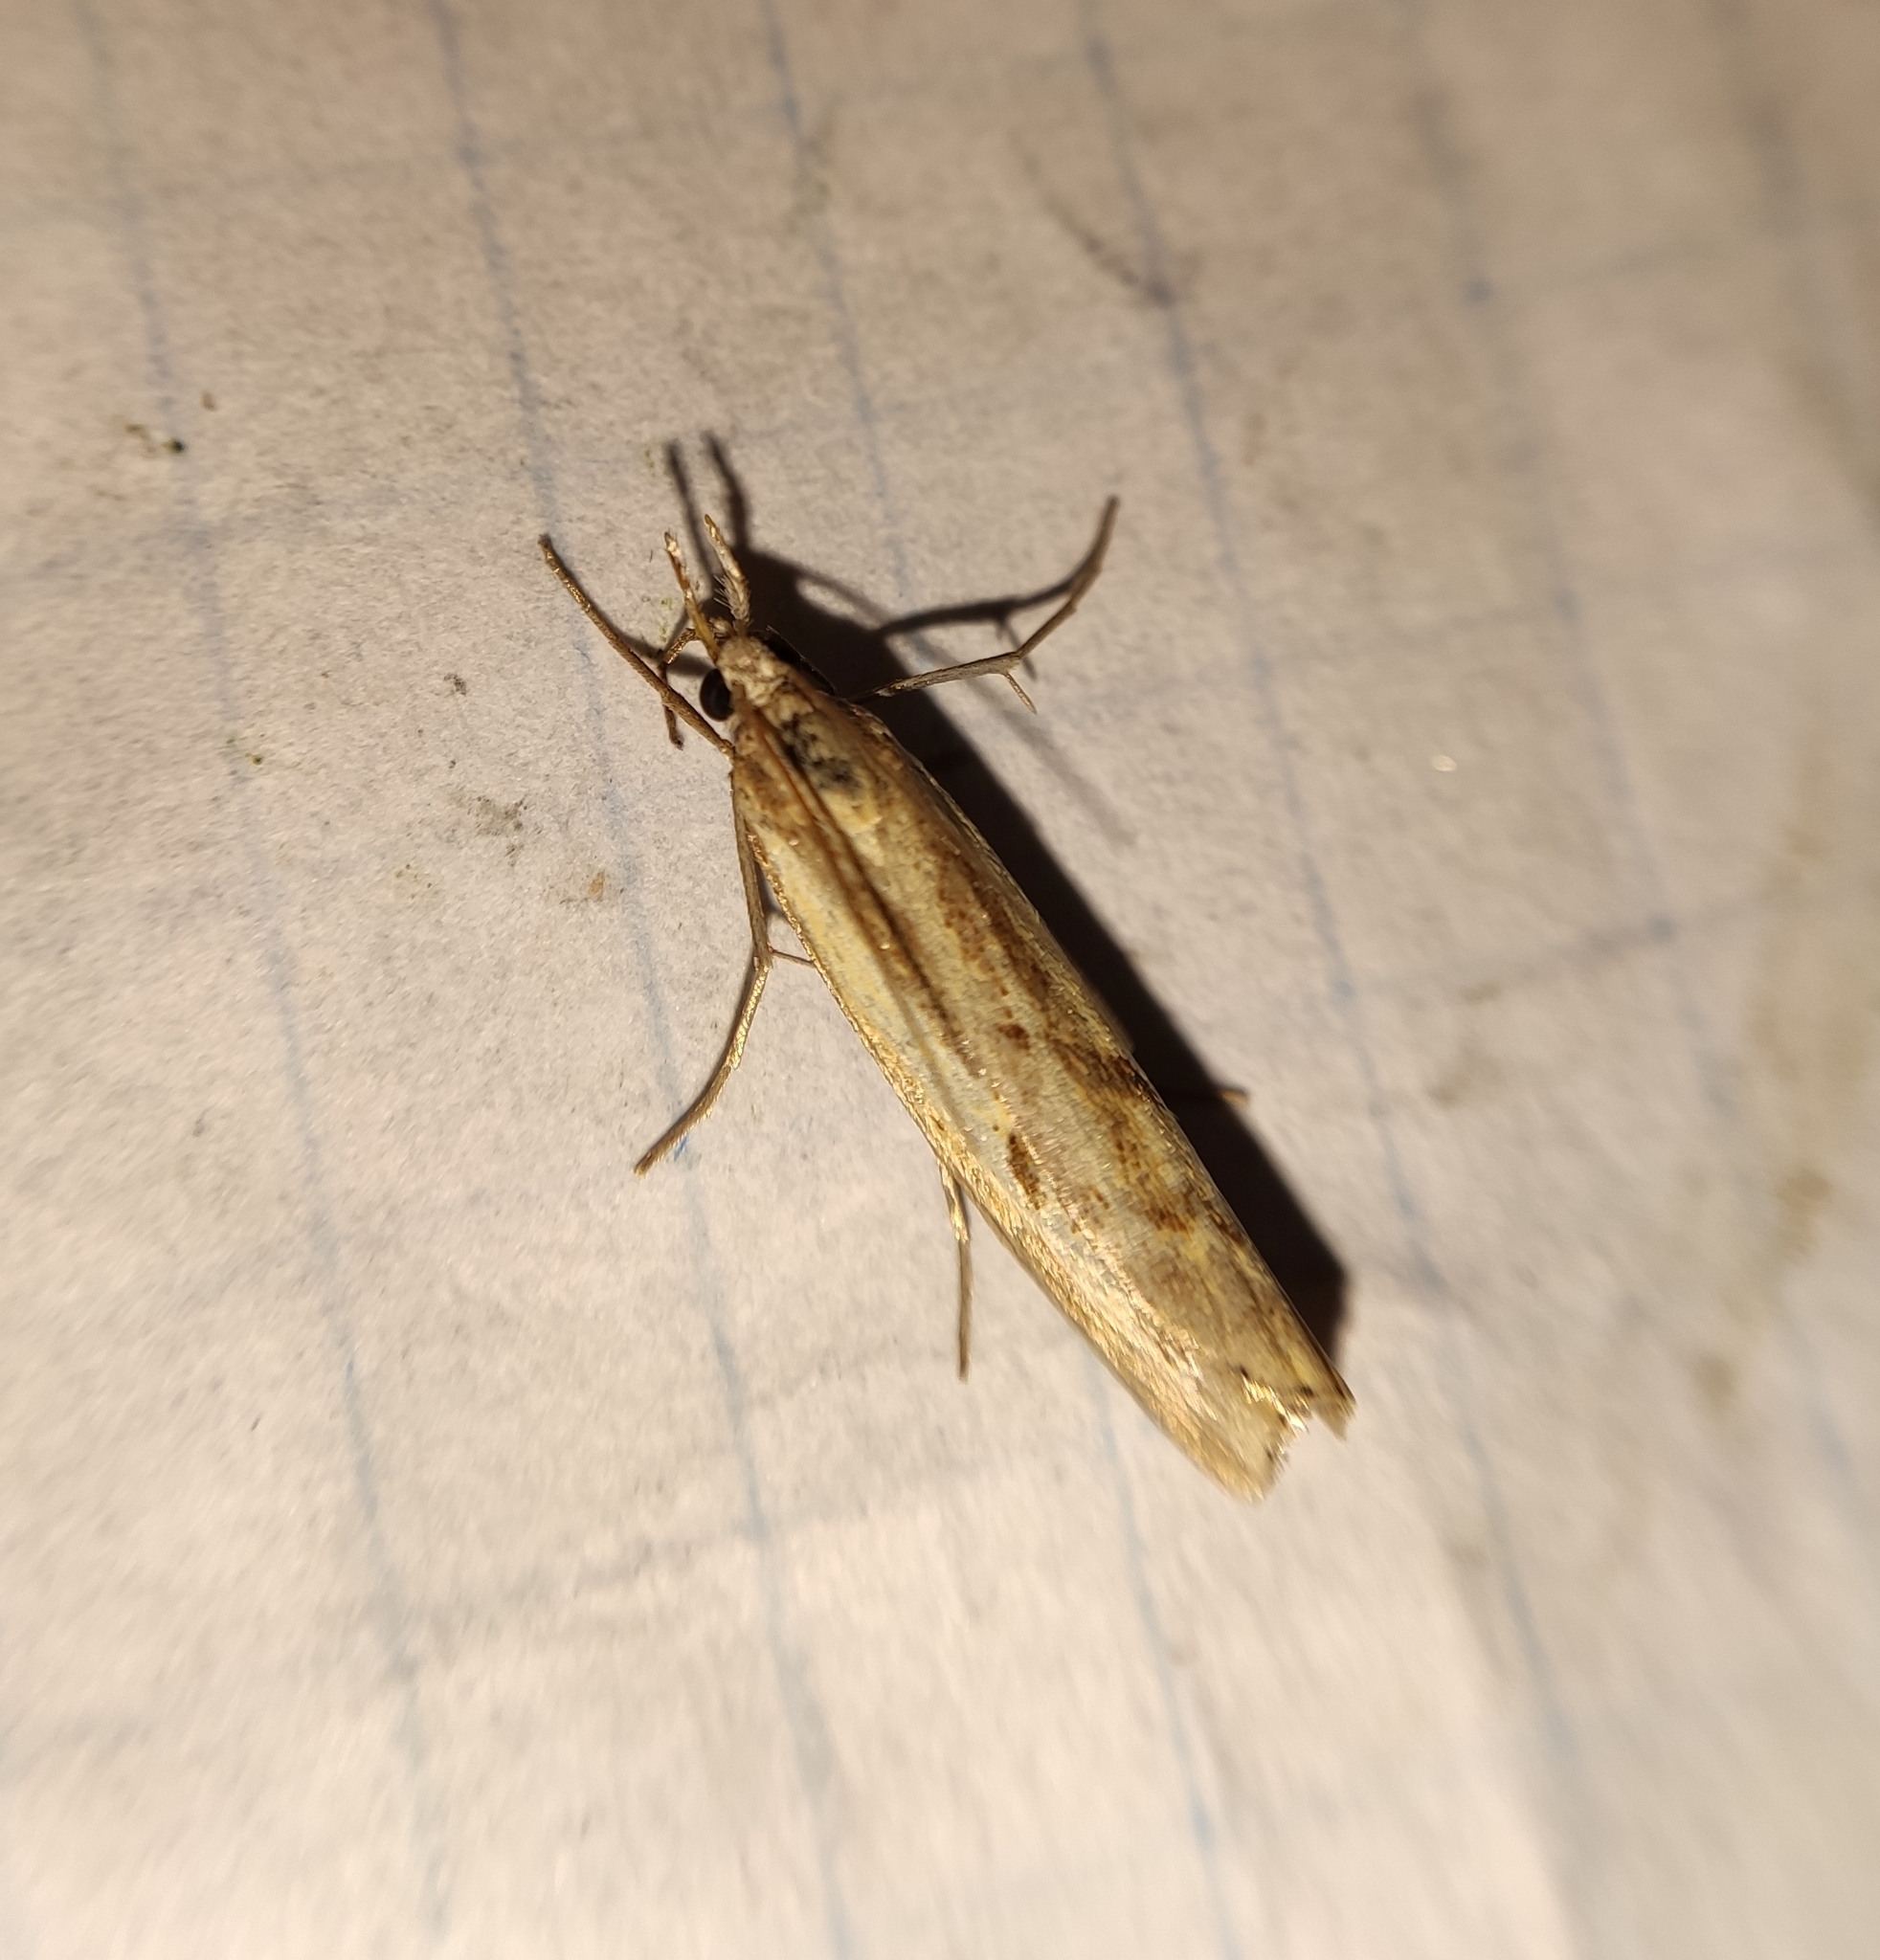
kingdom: Animalia
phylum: Arthropoda
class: Insecta
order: Lepidoptera
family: Crambidae
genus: Agriphila
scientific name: Agriphila inquinatella
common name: Barred grass-veneer
